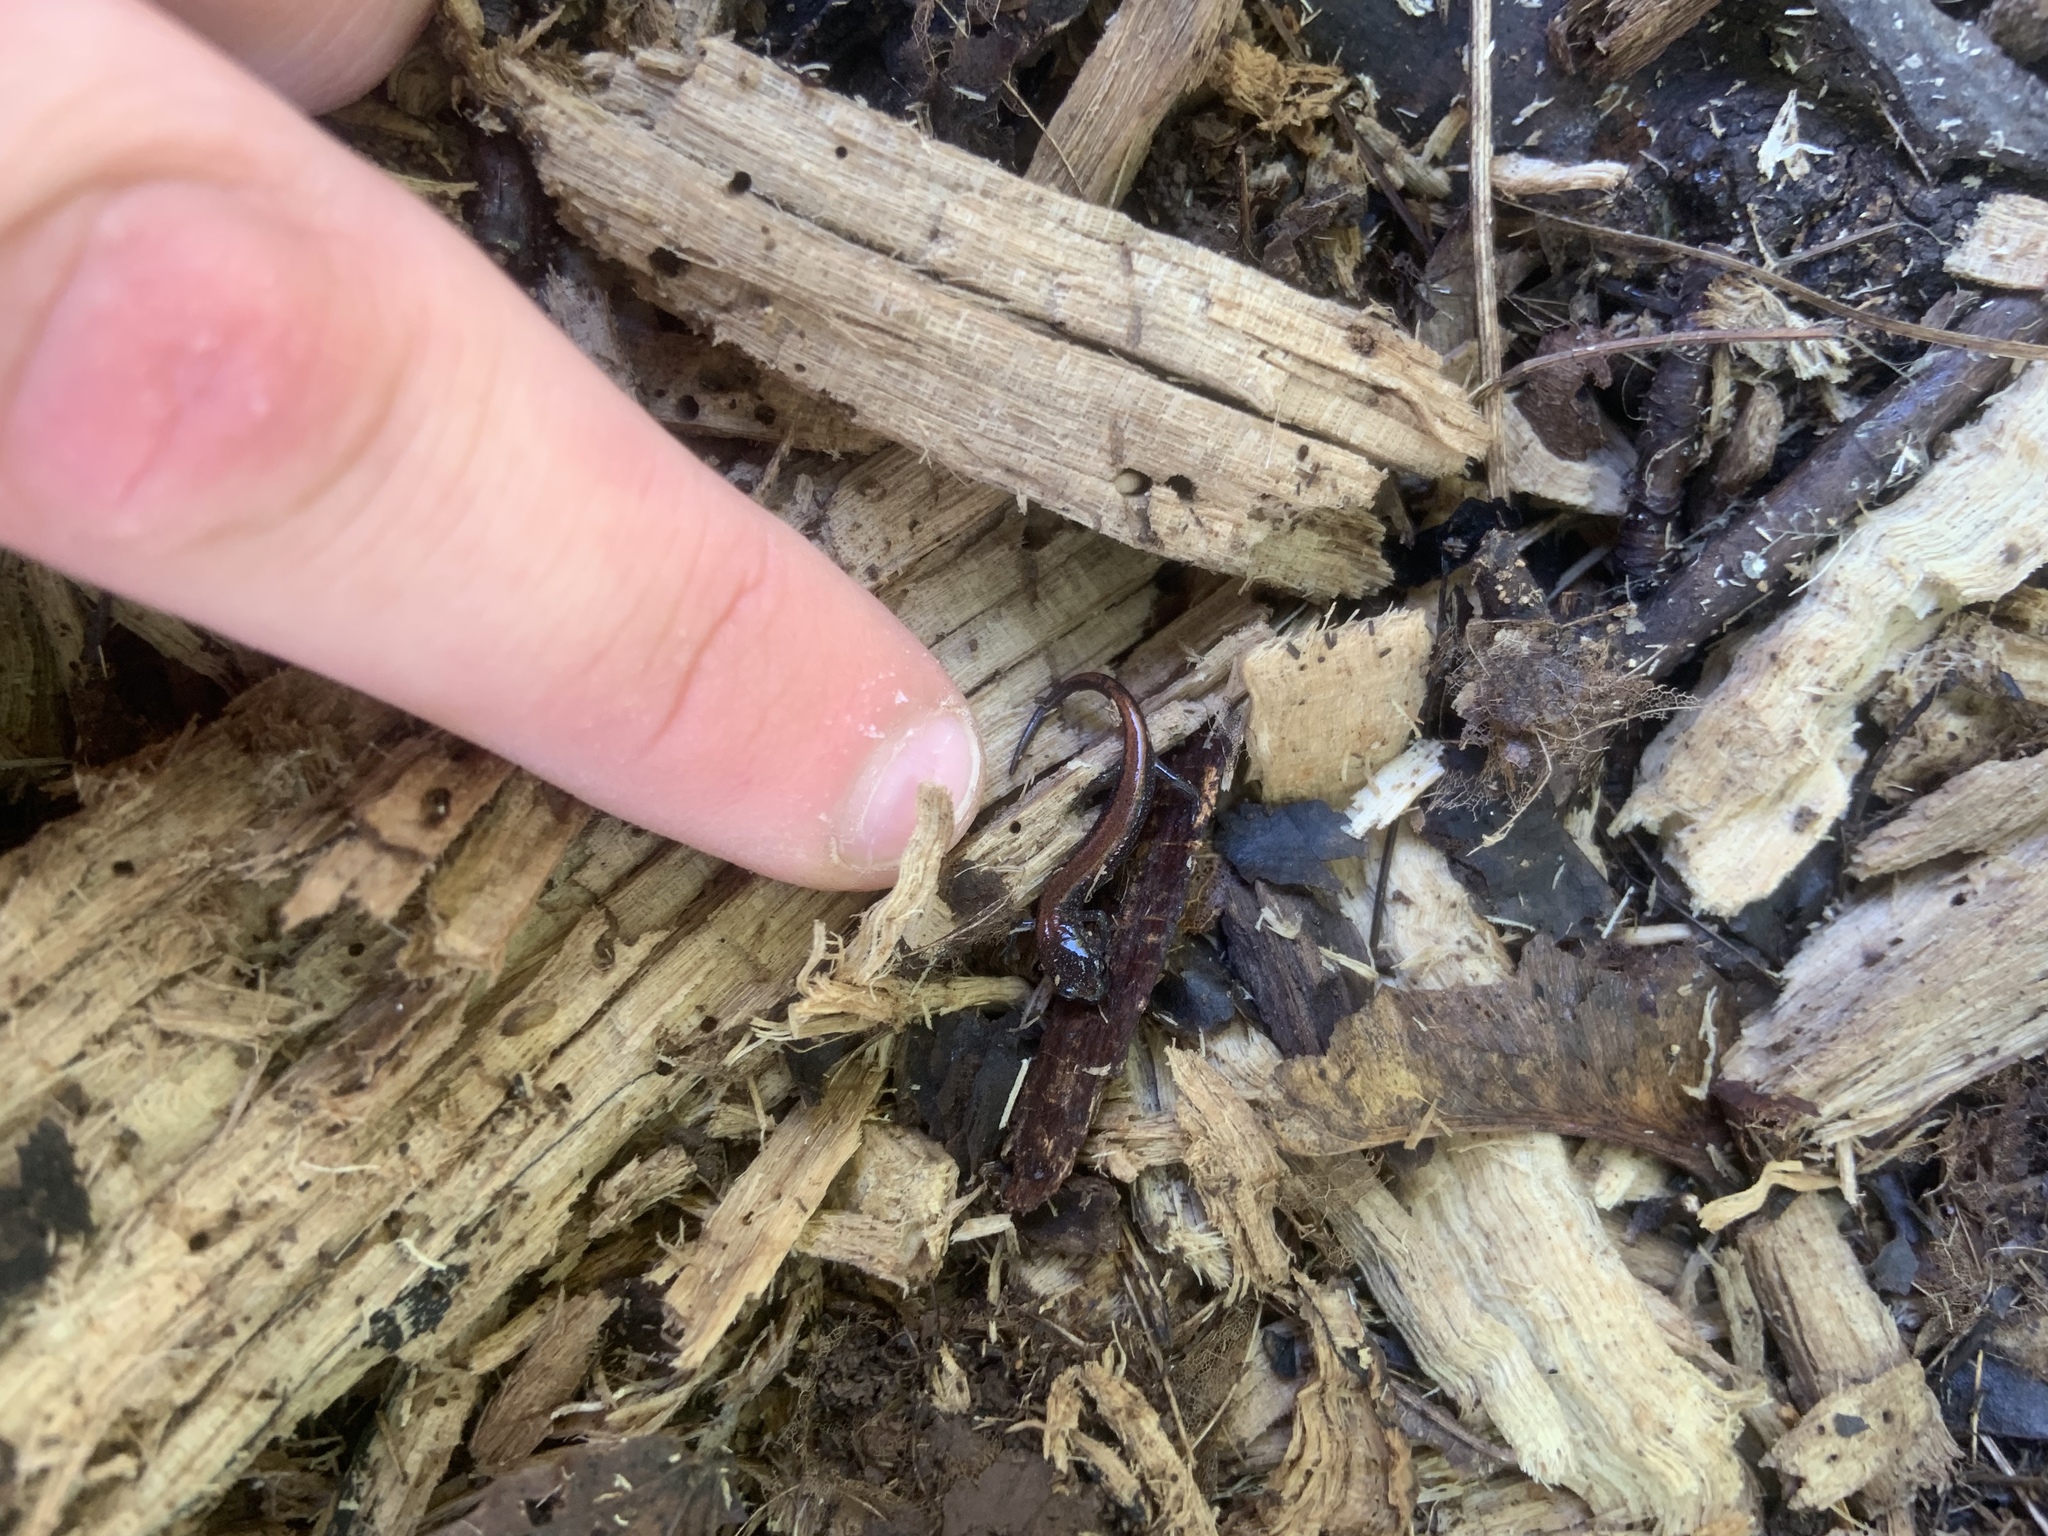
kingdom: Animalia
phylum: Chordata
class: Amphibia
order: Caudata
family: Plethodontidae
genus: Plethodon
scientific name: Plethodon cinereus
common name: Redback salamander
